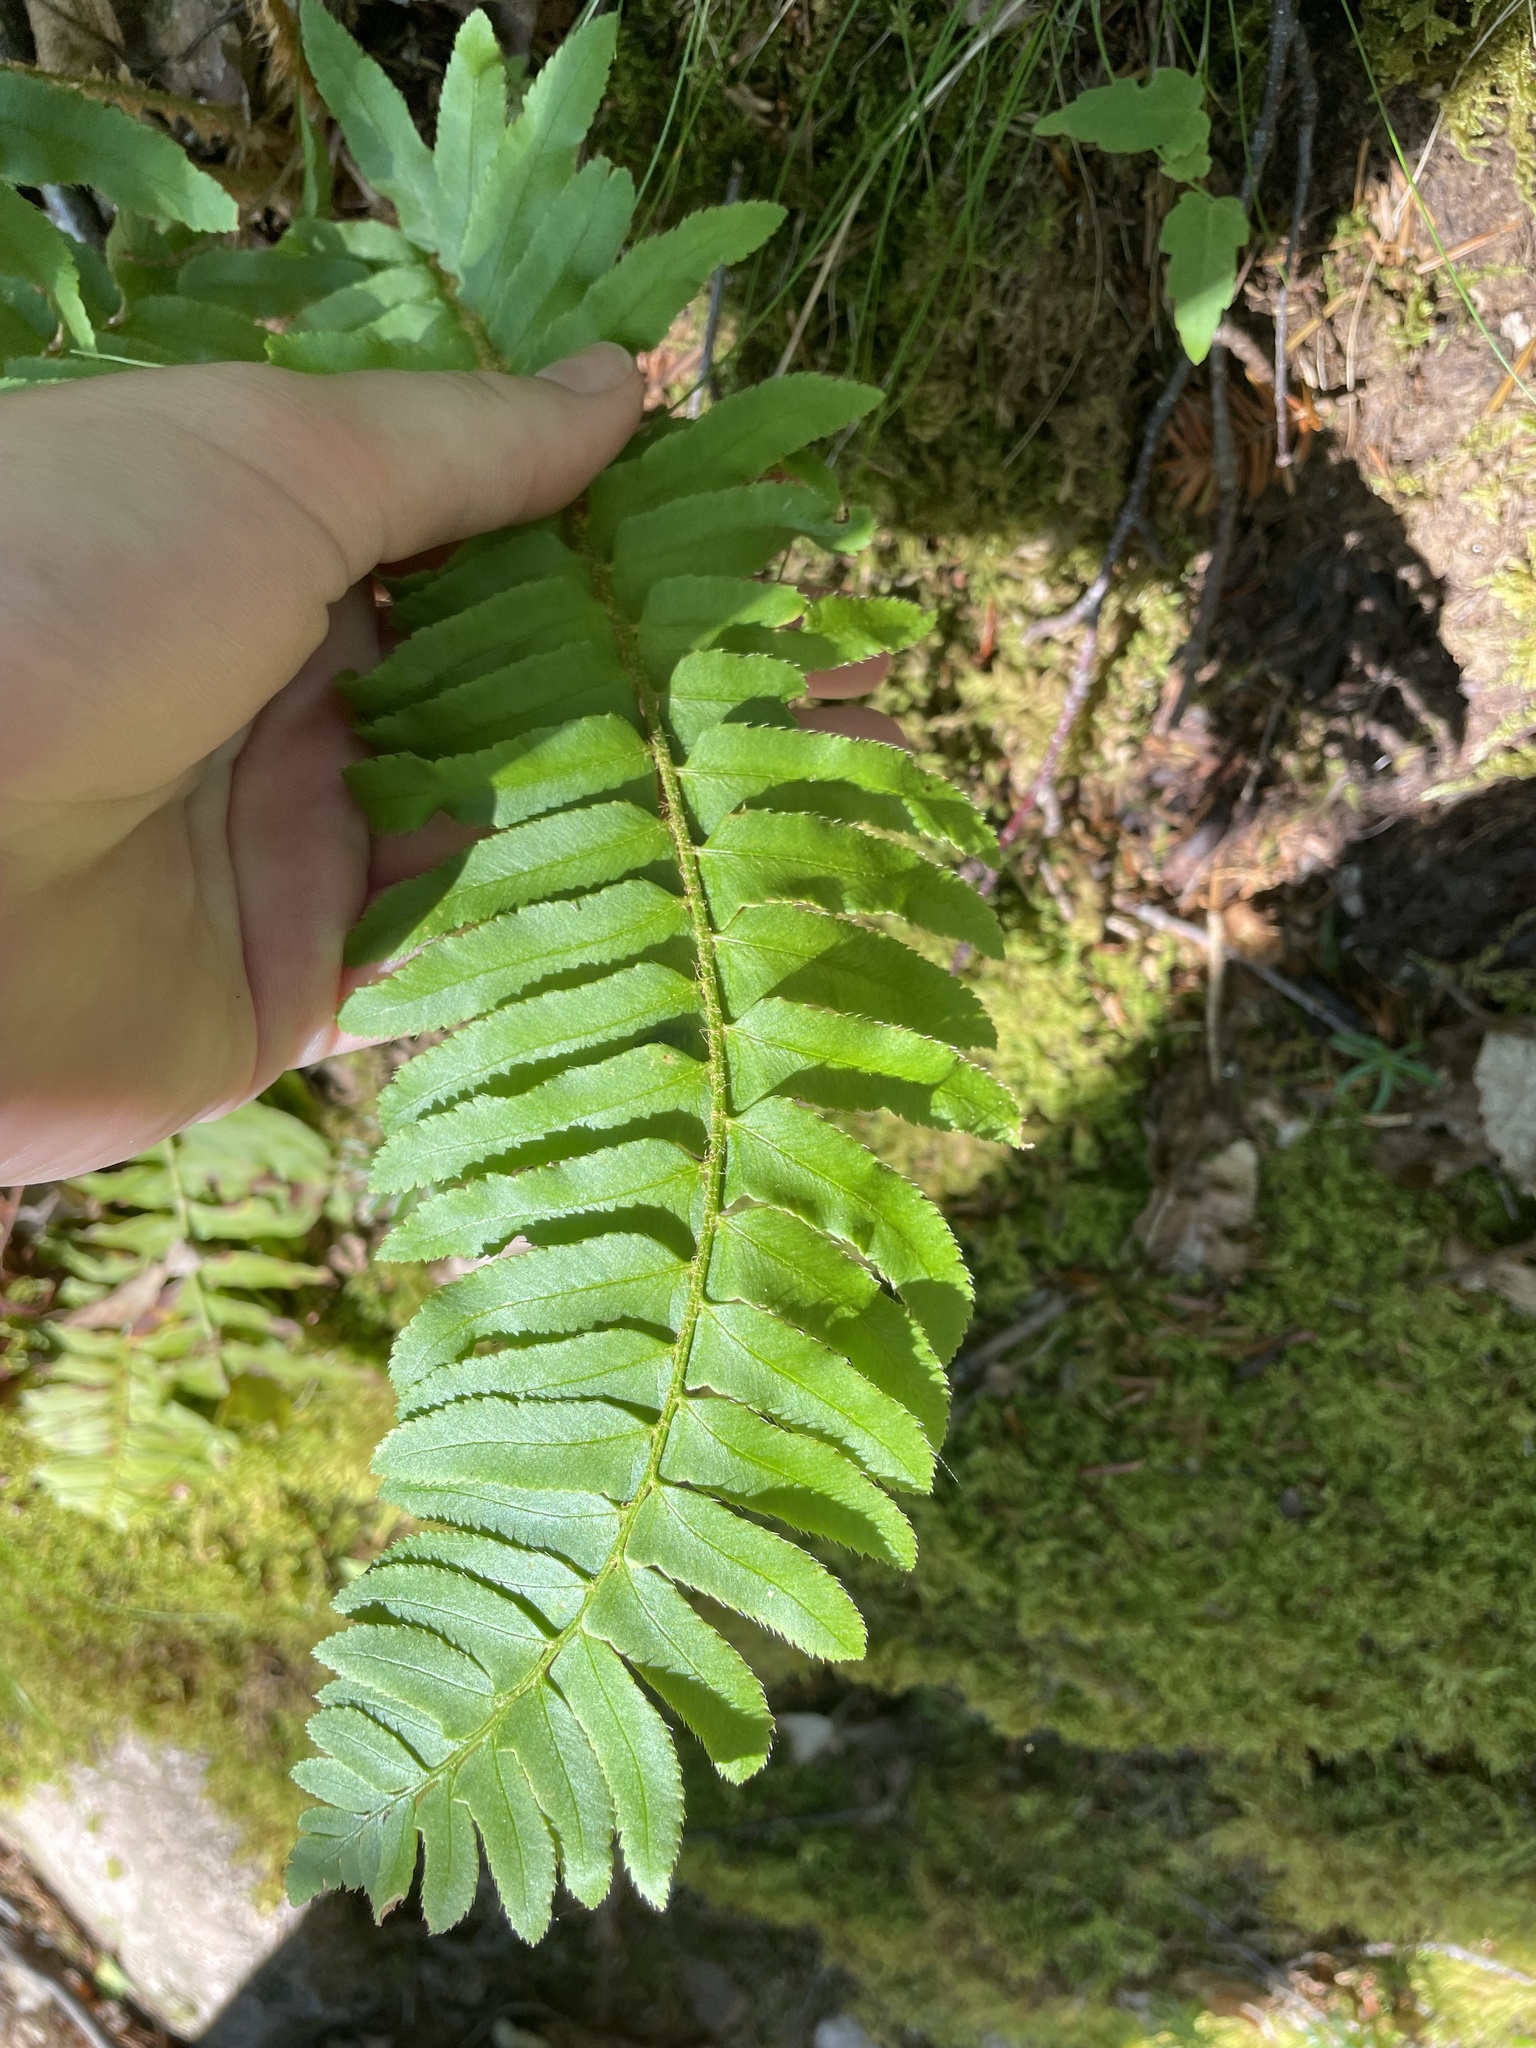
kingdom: Plantae
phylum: Tracheophyta
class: Polypodiopsida
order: Polypodiales
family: Dryopteridaceae
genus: Polystichum
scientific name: Polystichum acrostichoides
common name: Christmas fern
